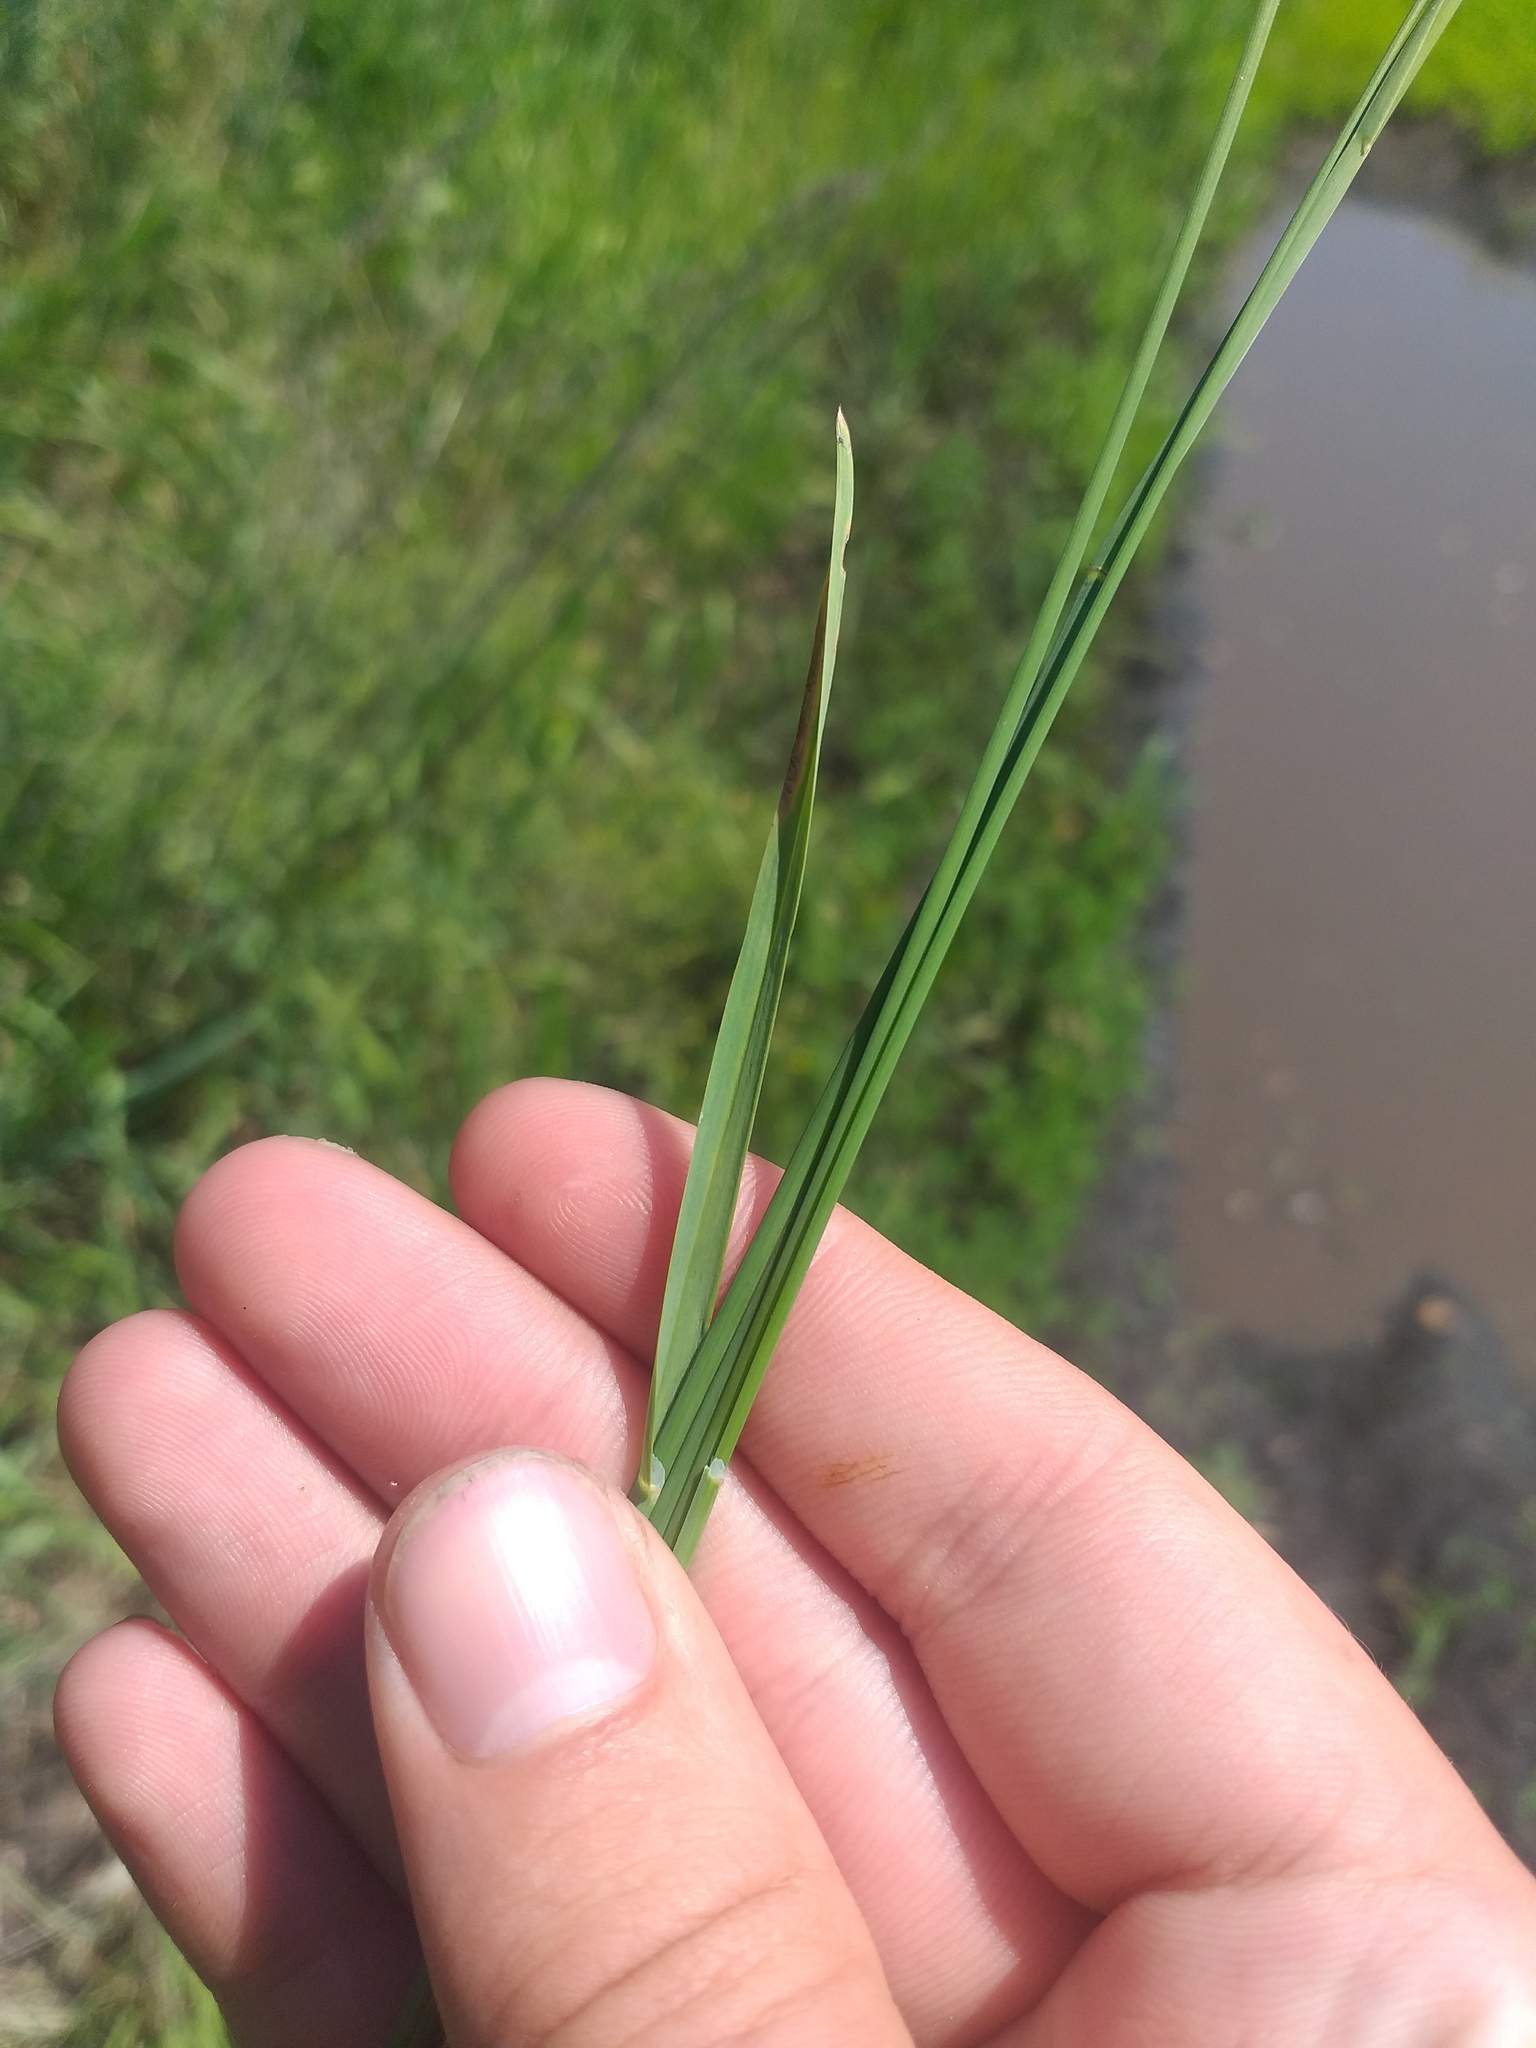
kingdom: Plantae
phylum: Tracheophyta
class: Liliopsida
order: Poales
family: Poaceae
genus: Poa
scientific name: Poa compressa
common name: Canada bluegrass
